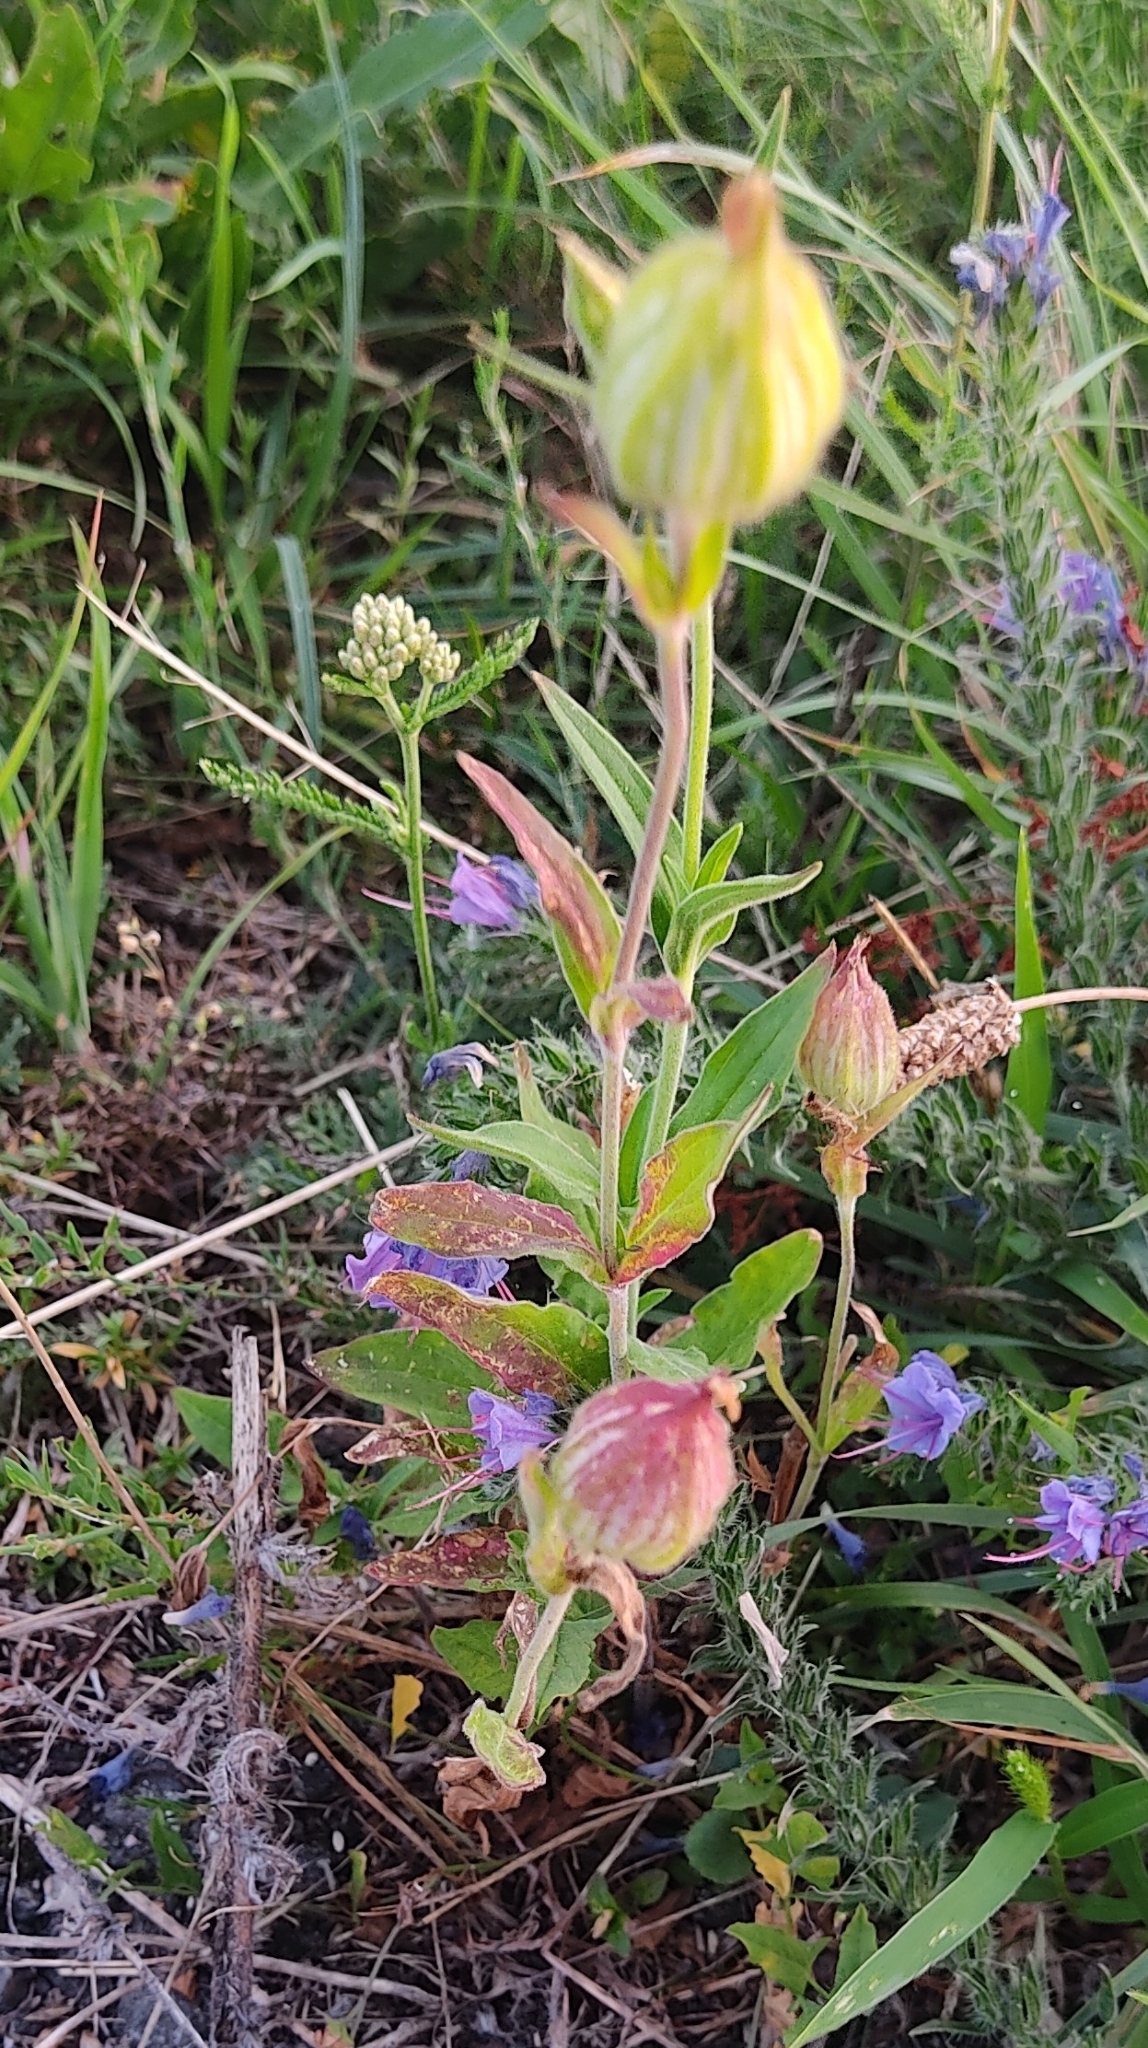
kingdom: Plantae
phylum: Tracheophyta
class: Magnoliopsida
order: Caryophyllales
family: Caryophyllaceae
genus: Silene
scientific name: Silene latifolia
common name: White campion
